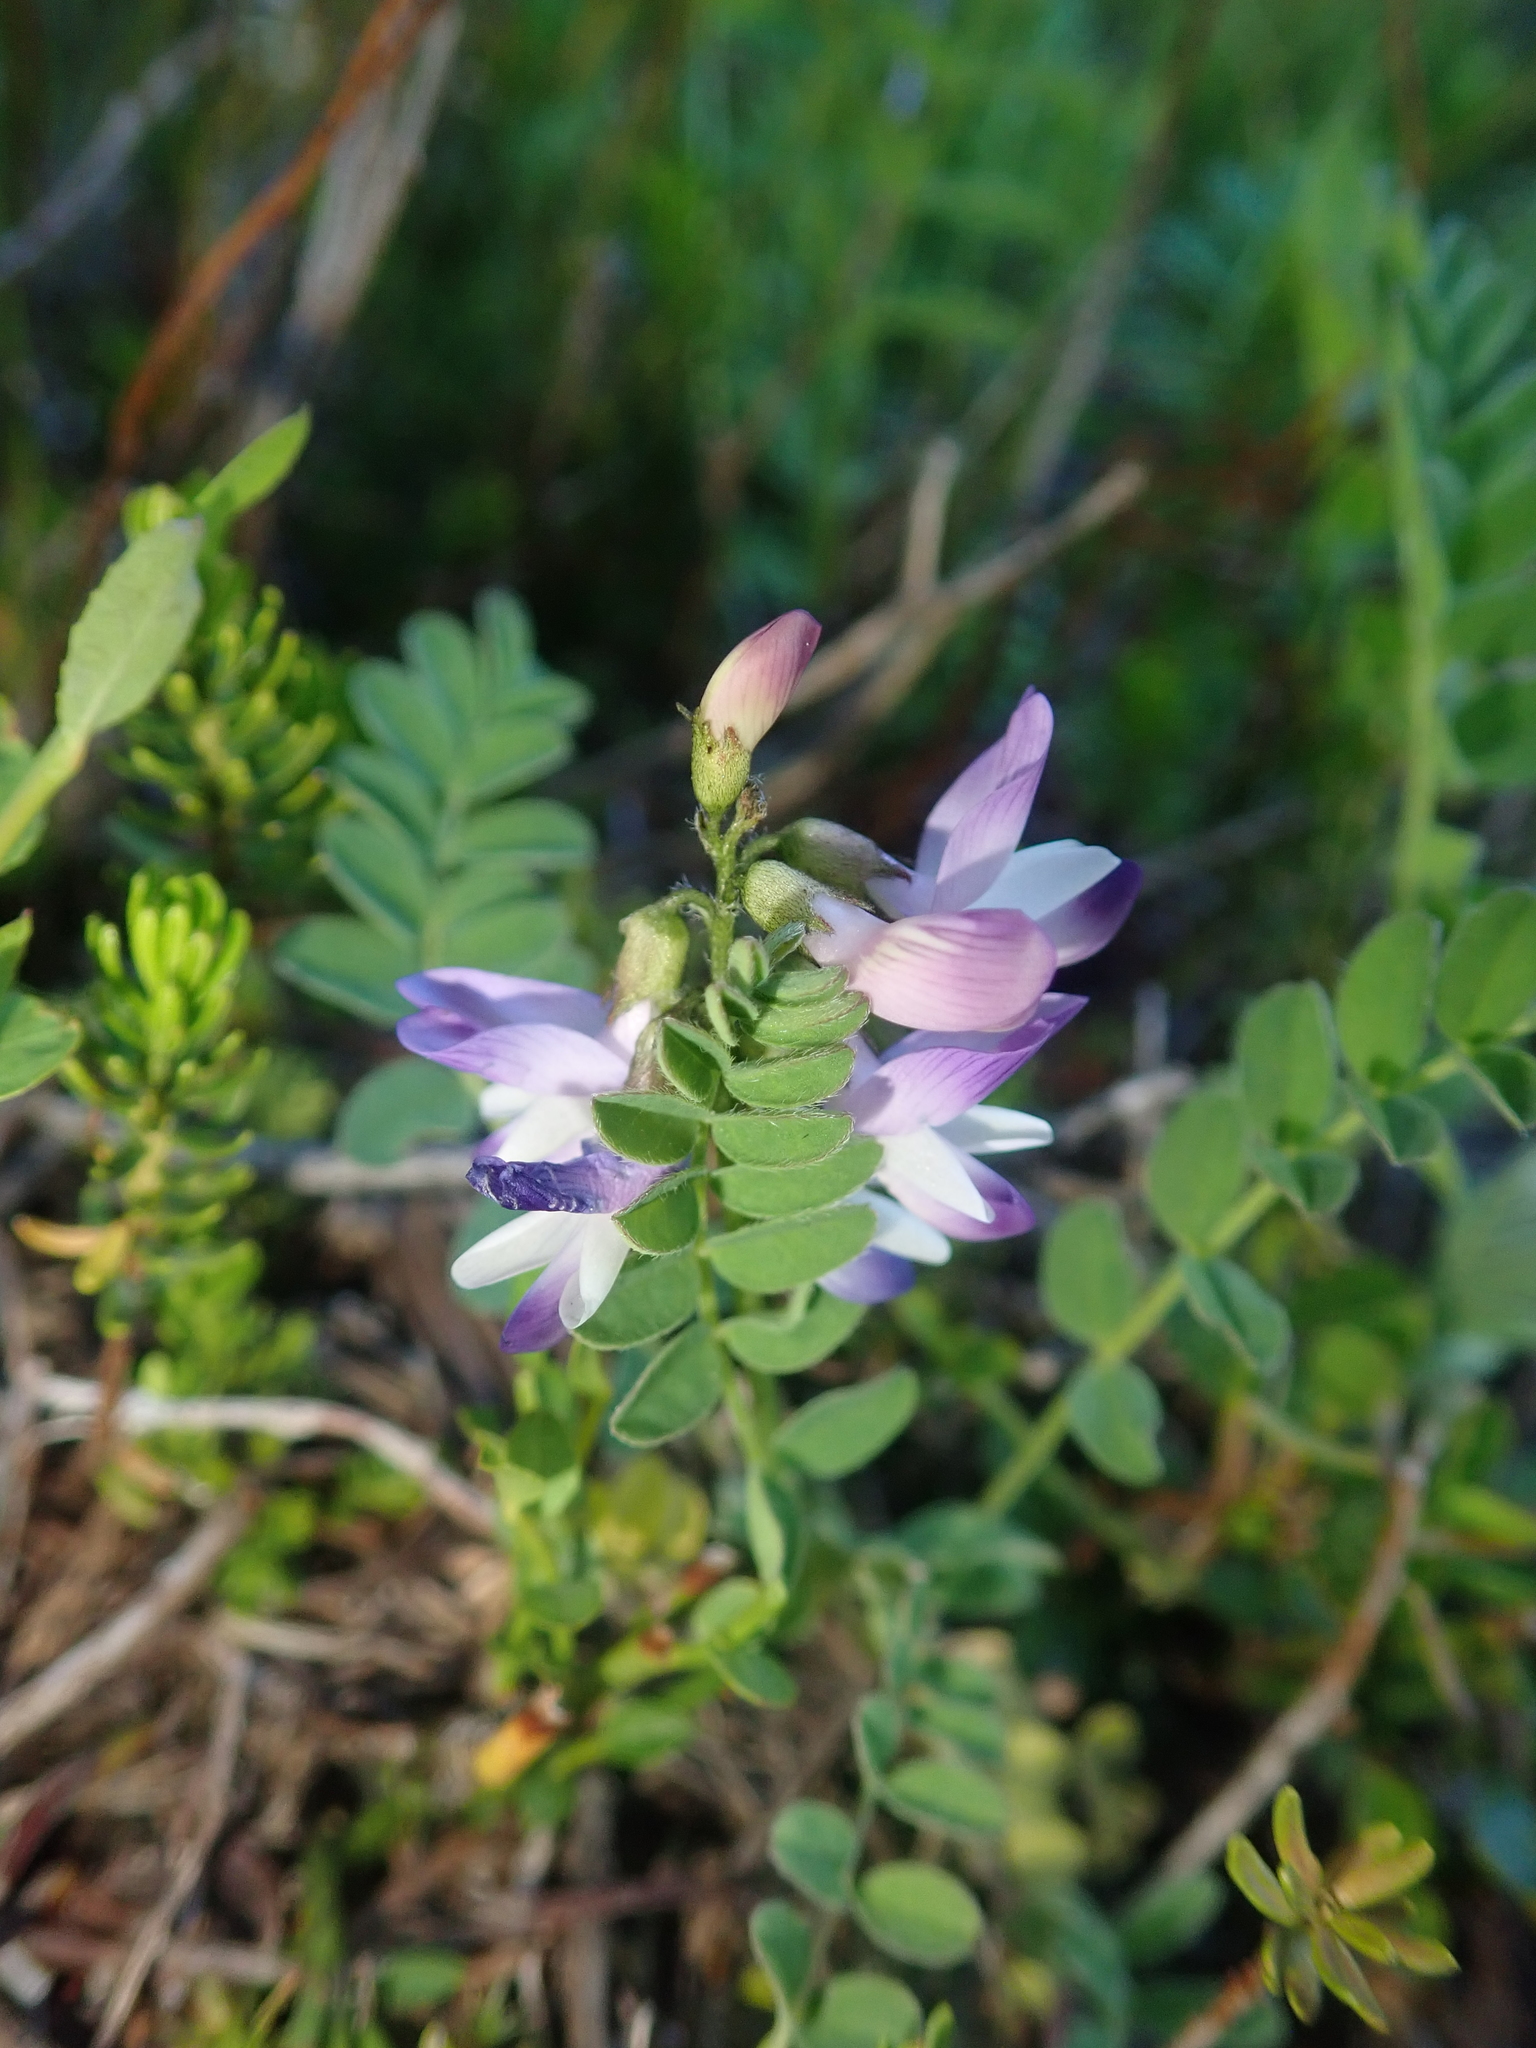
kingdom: Plantae
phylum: Tracheophyta
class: Magnoliopsida
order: Fabales
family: Fabaceae
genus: Astragalus
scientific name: Astragalus alpinus
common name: Alpine milk-vetch
